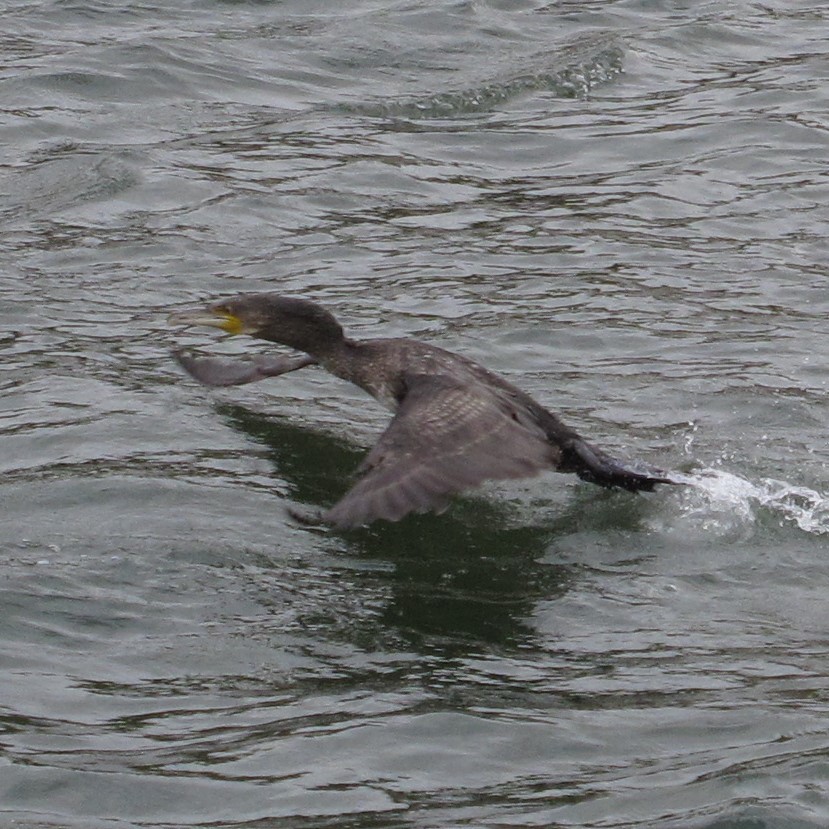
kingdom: Animalia
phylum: Chordata
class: Aves
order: Suliformes
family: Phalacrocoracidae
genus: Phalacrocorax
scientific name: Phalacrocorax carbo
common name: Great cormorant
